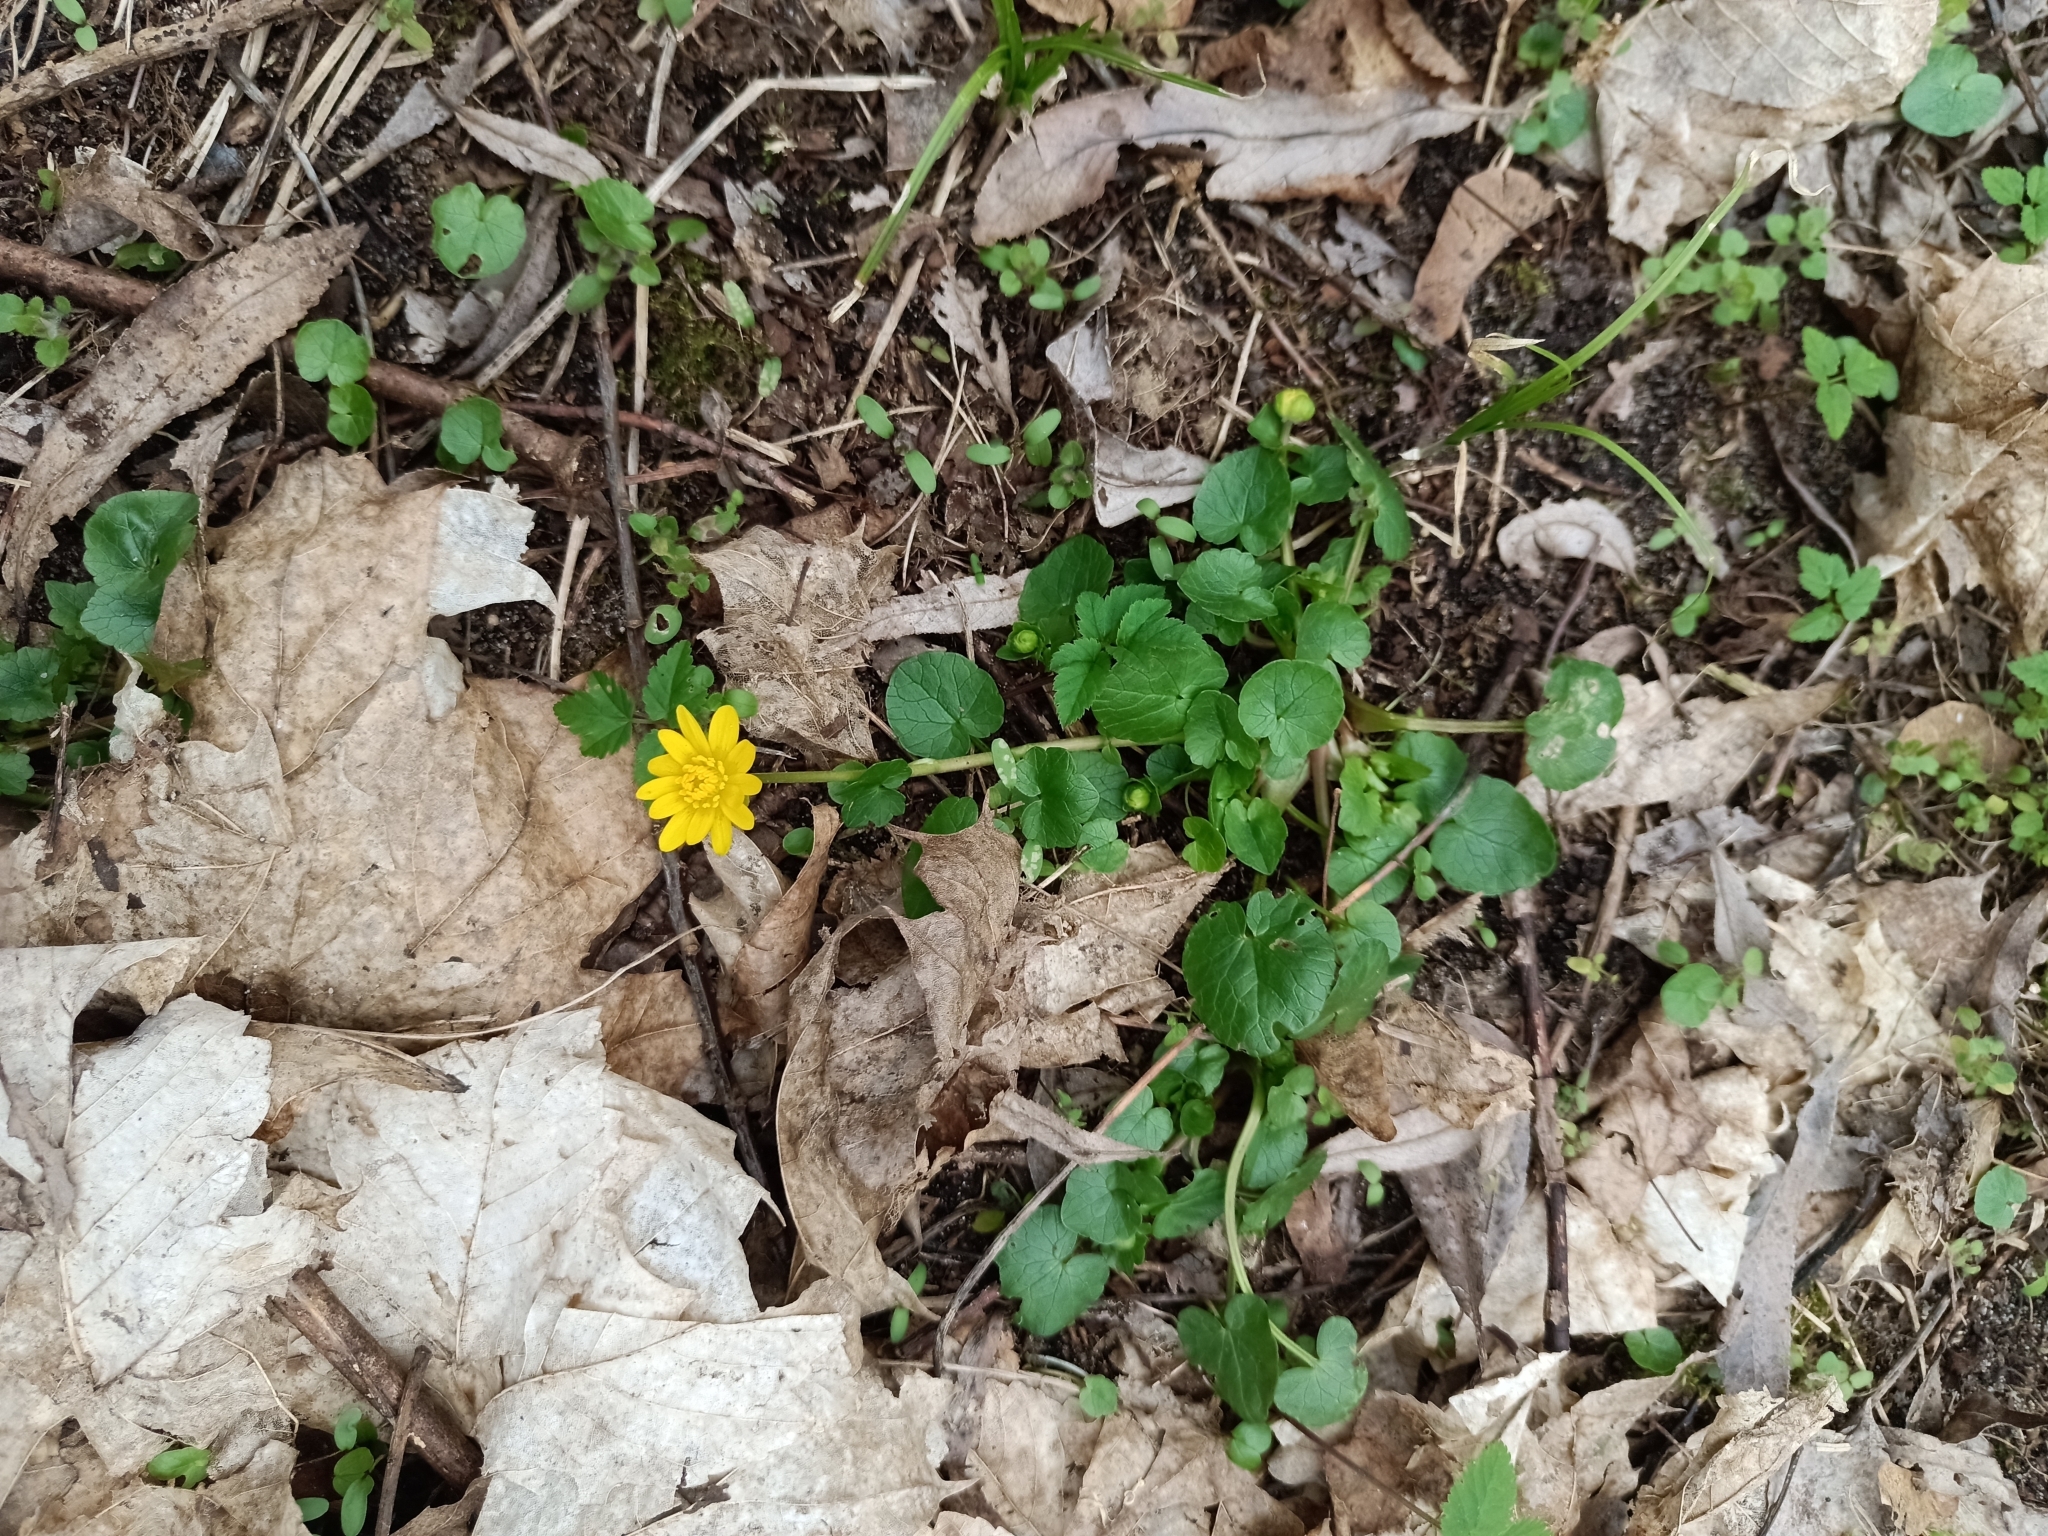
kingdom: Plantae
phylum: Tracheophyta
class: Magnoliopsida
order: Ranunculales
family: Ranunculaceae
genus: Ficaria
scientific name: Ficaria verna
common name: Lesser celandine
